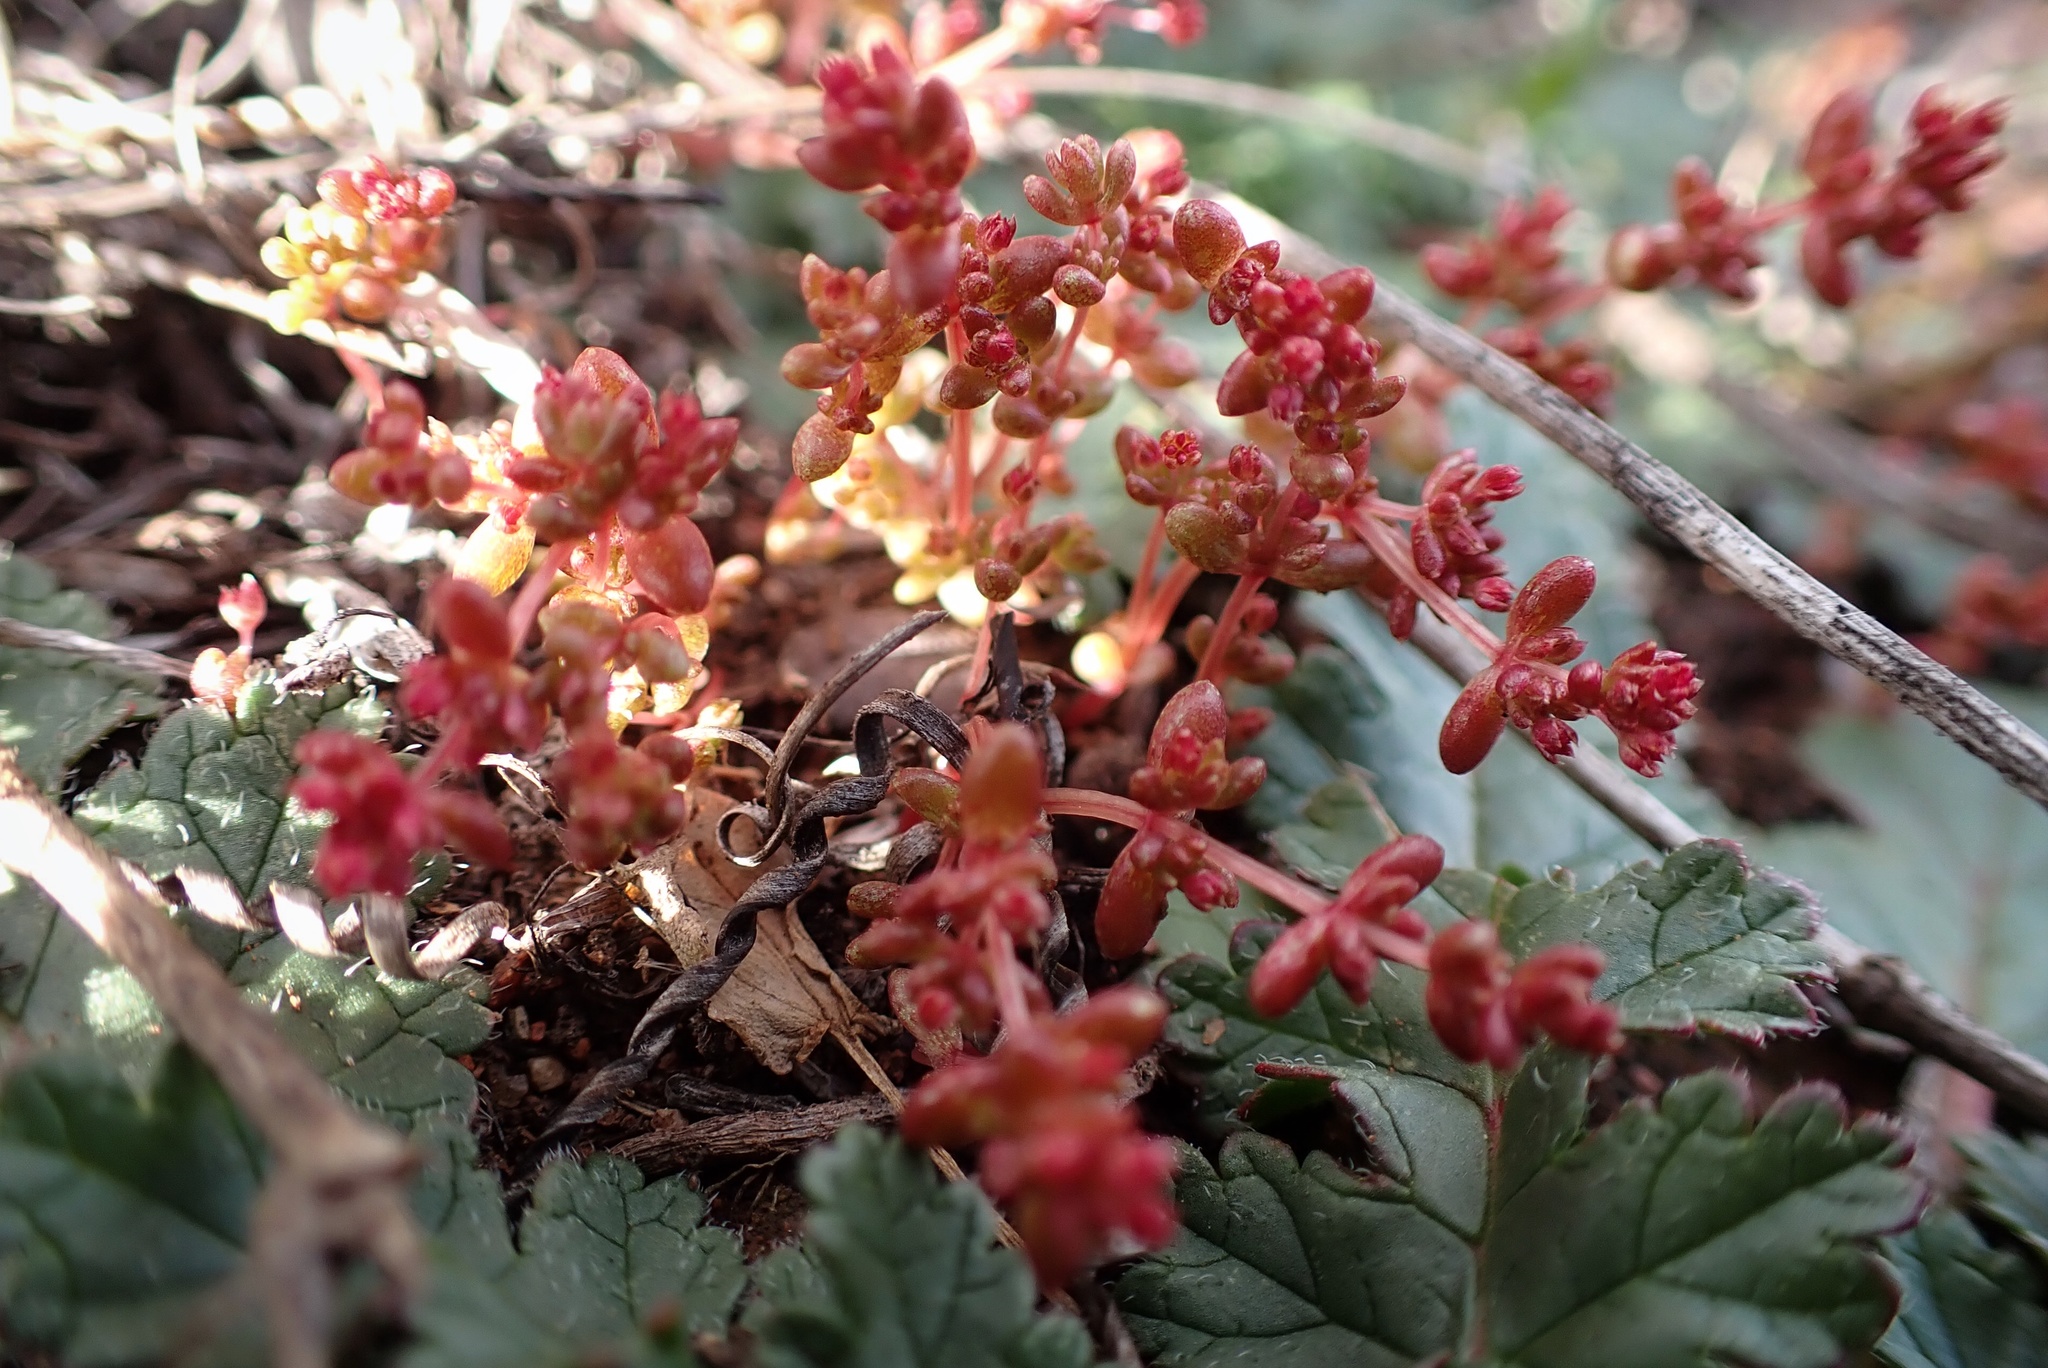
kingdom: Plantae
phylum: Tracheophyta
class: Magnoliopsida
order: Saxifragales
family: Crassulaceae
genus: Crassula
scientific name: Crassula connata
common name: Erect pygmyweed
